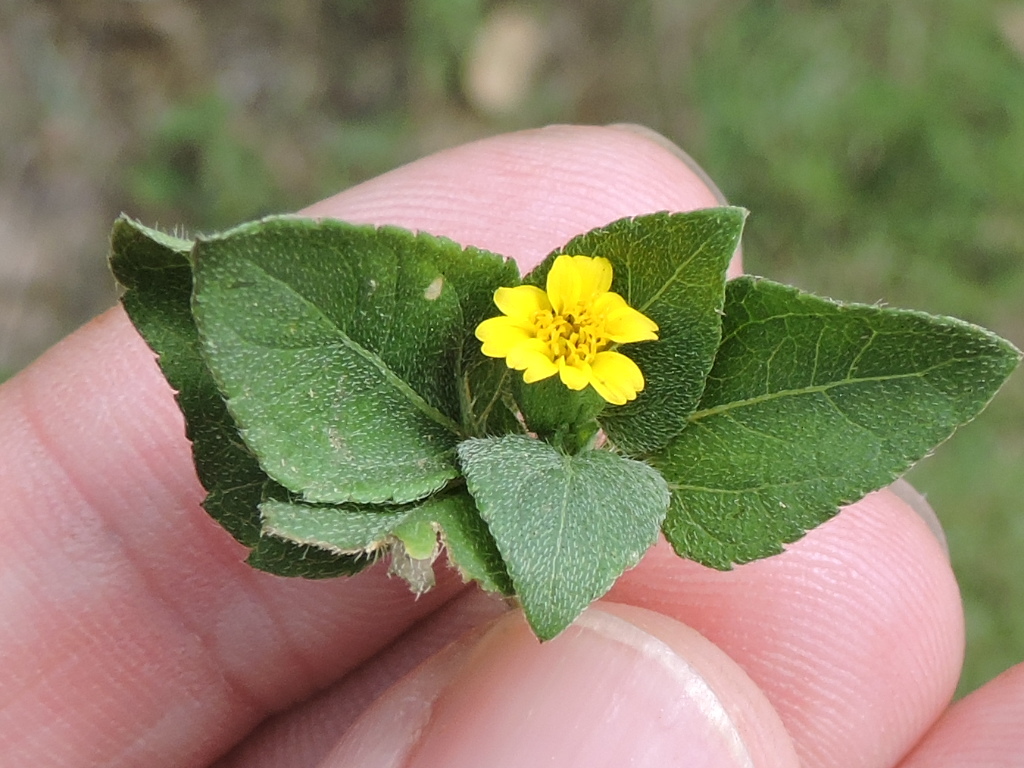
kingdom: Plantae
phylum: Tracheophyta
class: Magnoliopsida
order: Asterales
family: Asteraceae
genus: Calyptocarpus
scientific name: Calyptocarpus vialis
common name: Straggler daisy
